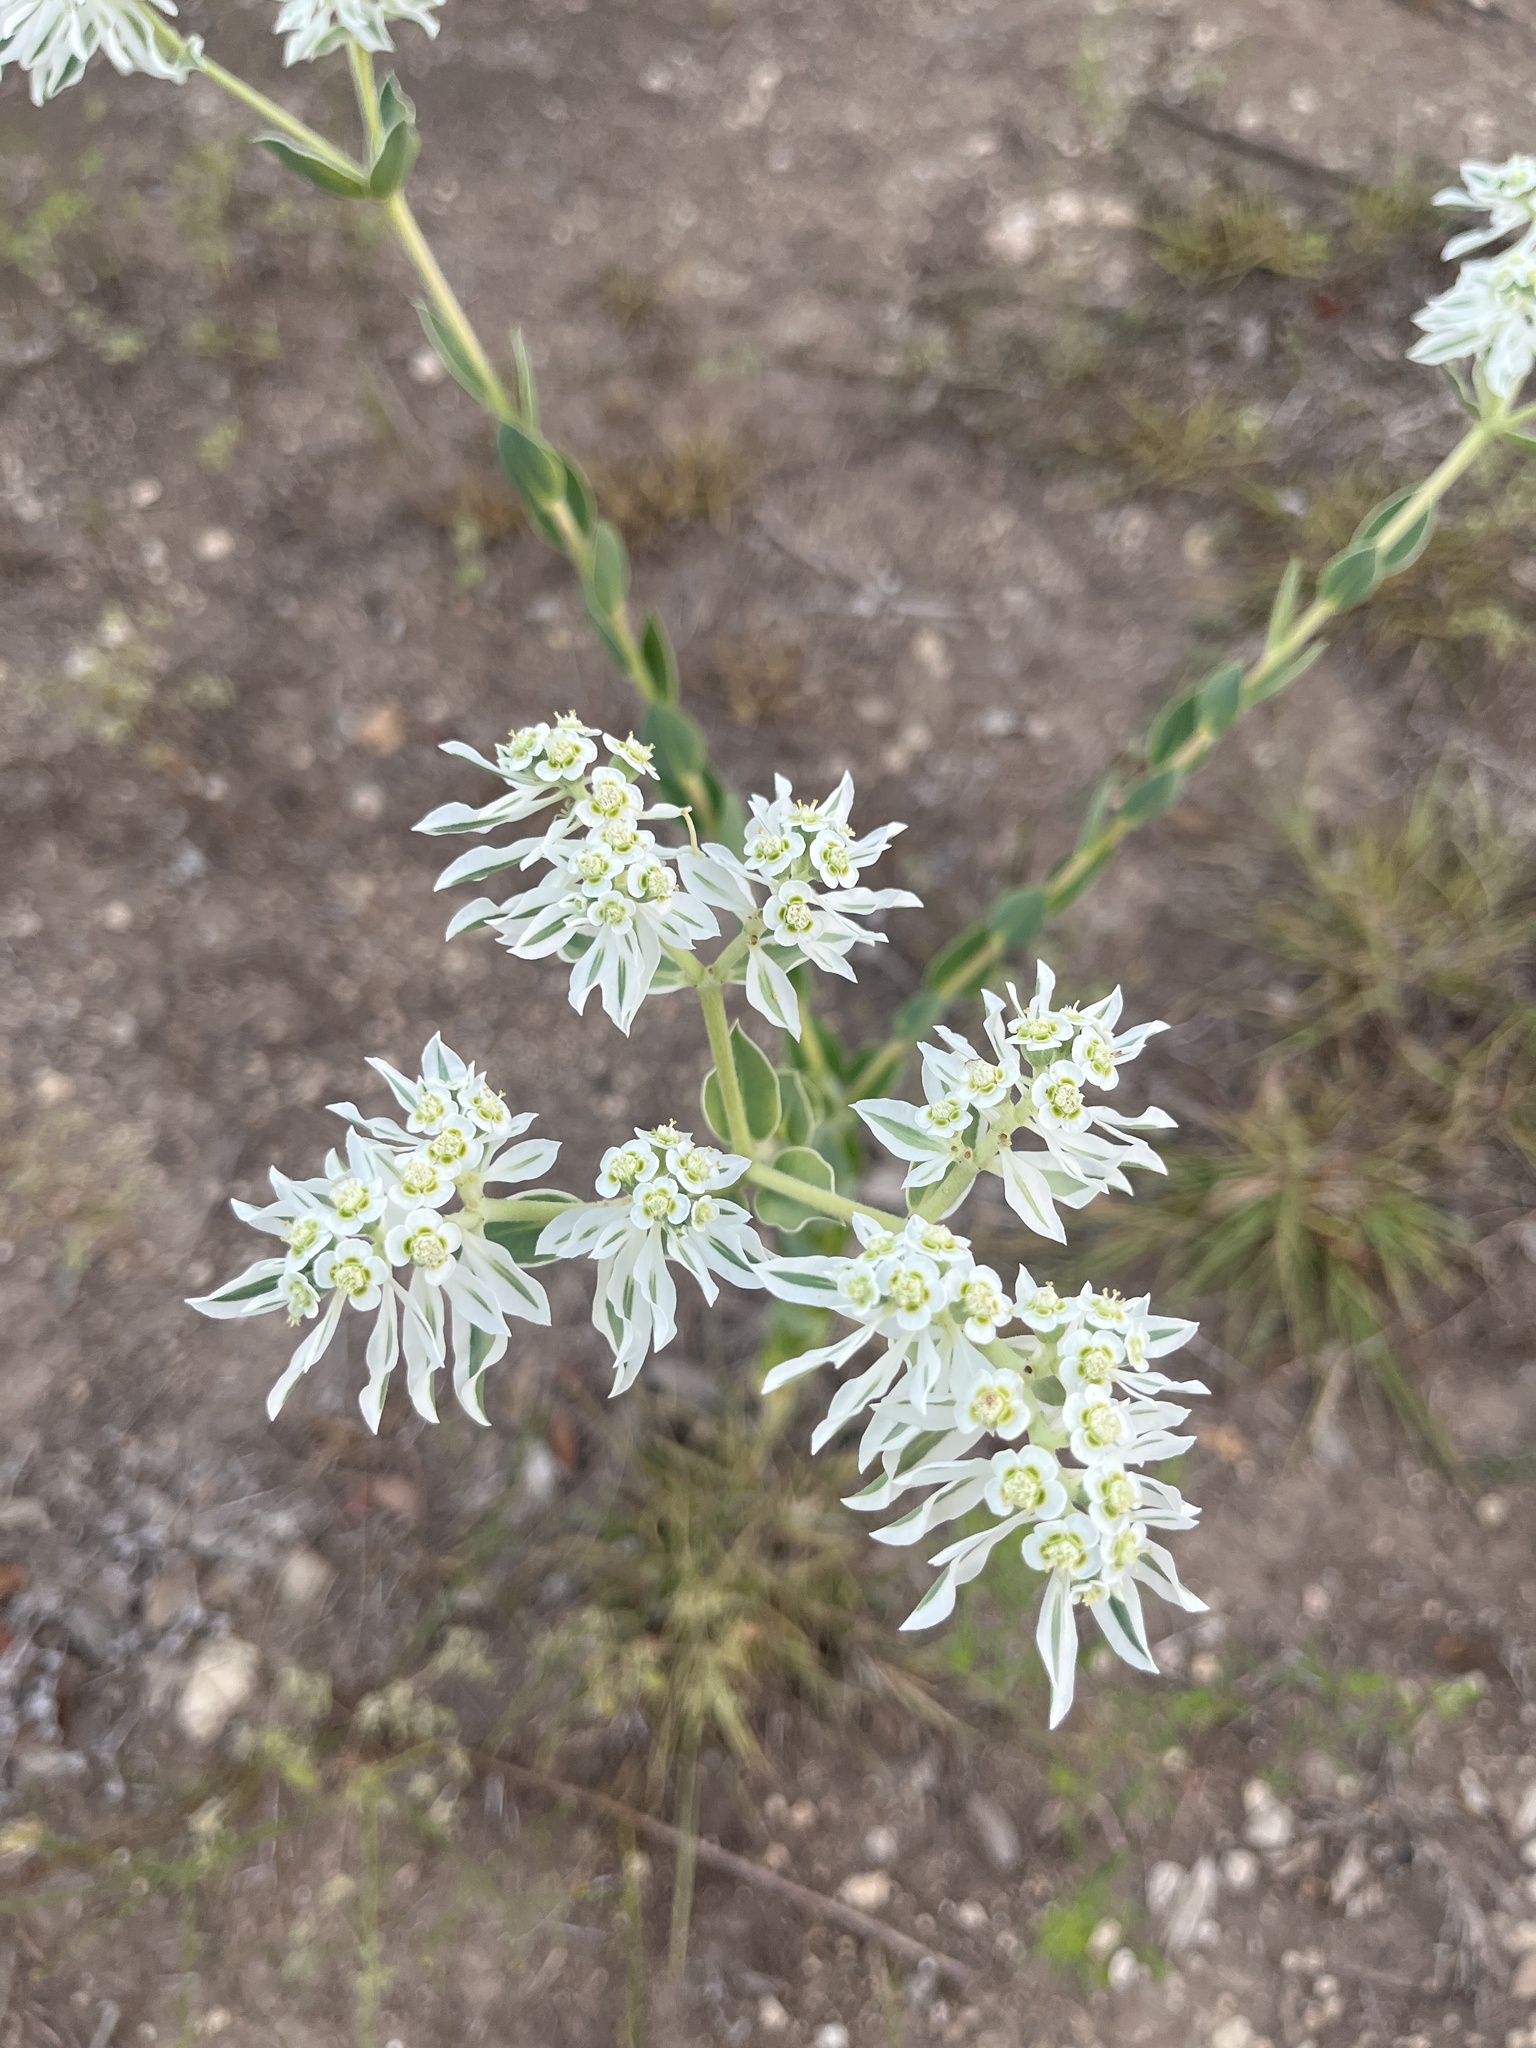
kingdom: Plantae
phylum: Tracheophyta
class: Magnoliopsida
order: Malpighiales
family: Euphorbiaceae
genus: Euphorbia
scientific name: Euphorbia marginata
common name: Ghostweed
